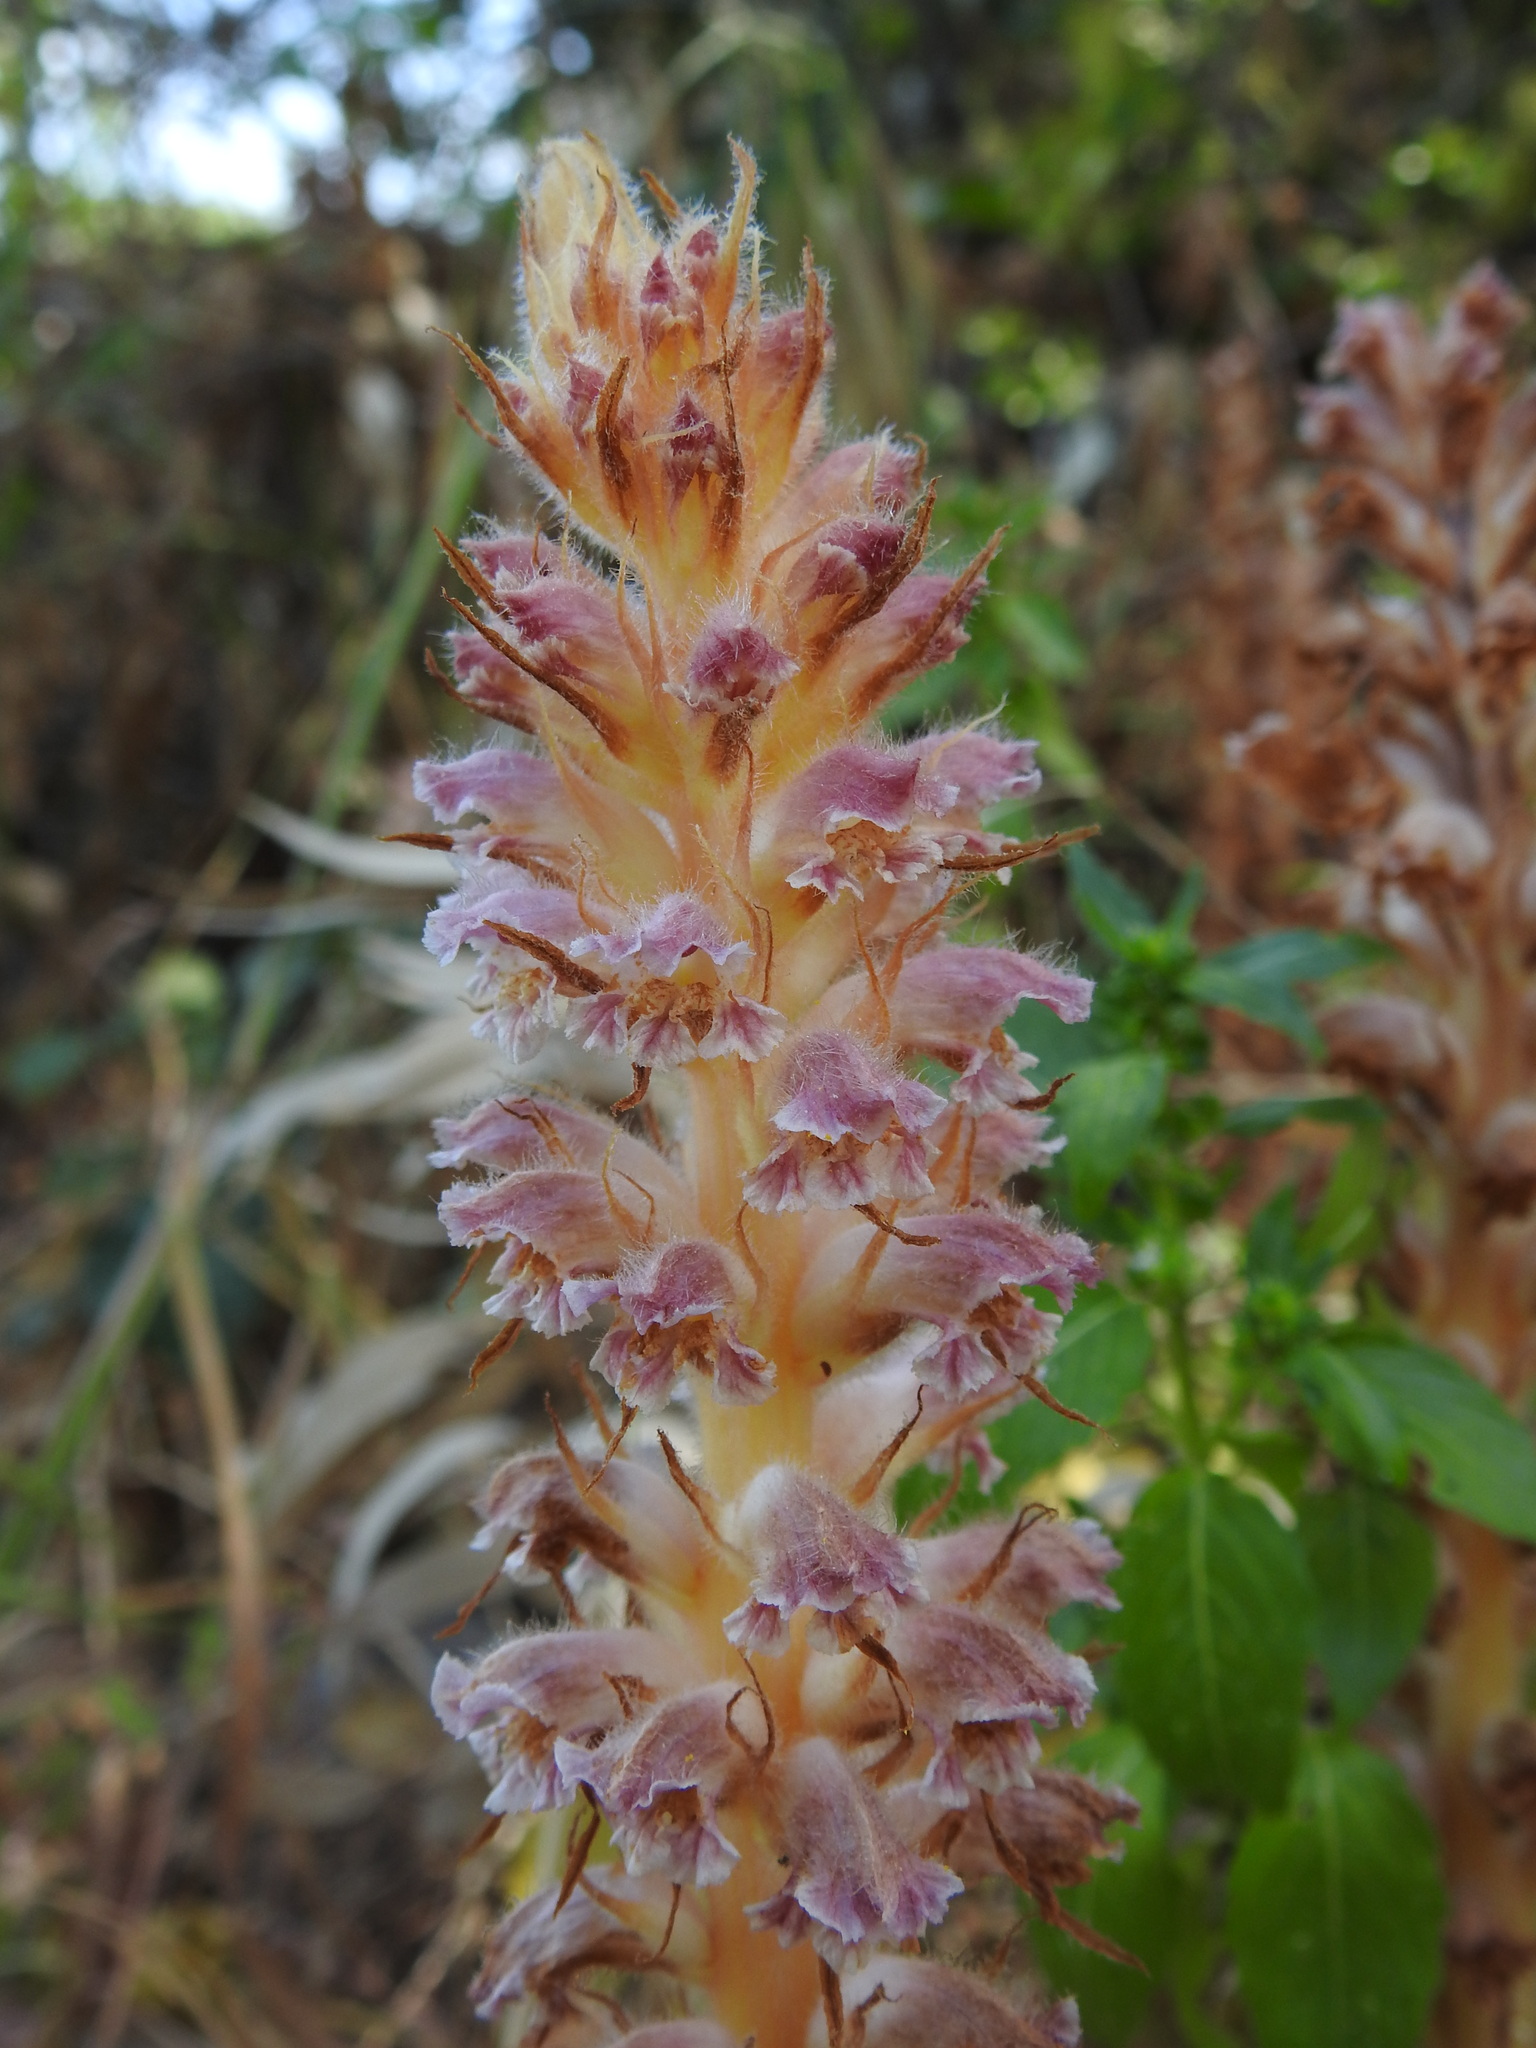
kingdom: Plantae
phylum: Tracheophyta
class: Magnoliopsida
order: Lamiales
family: Orobanchaceae
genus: Orobanche
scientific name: Orobanche pubescens
